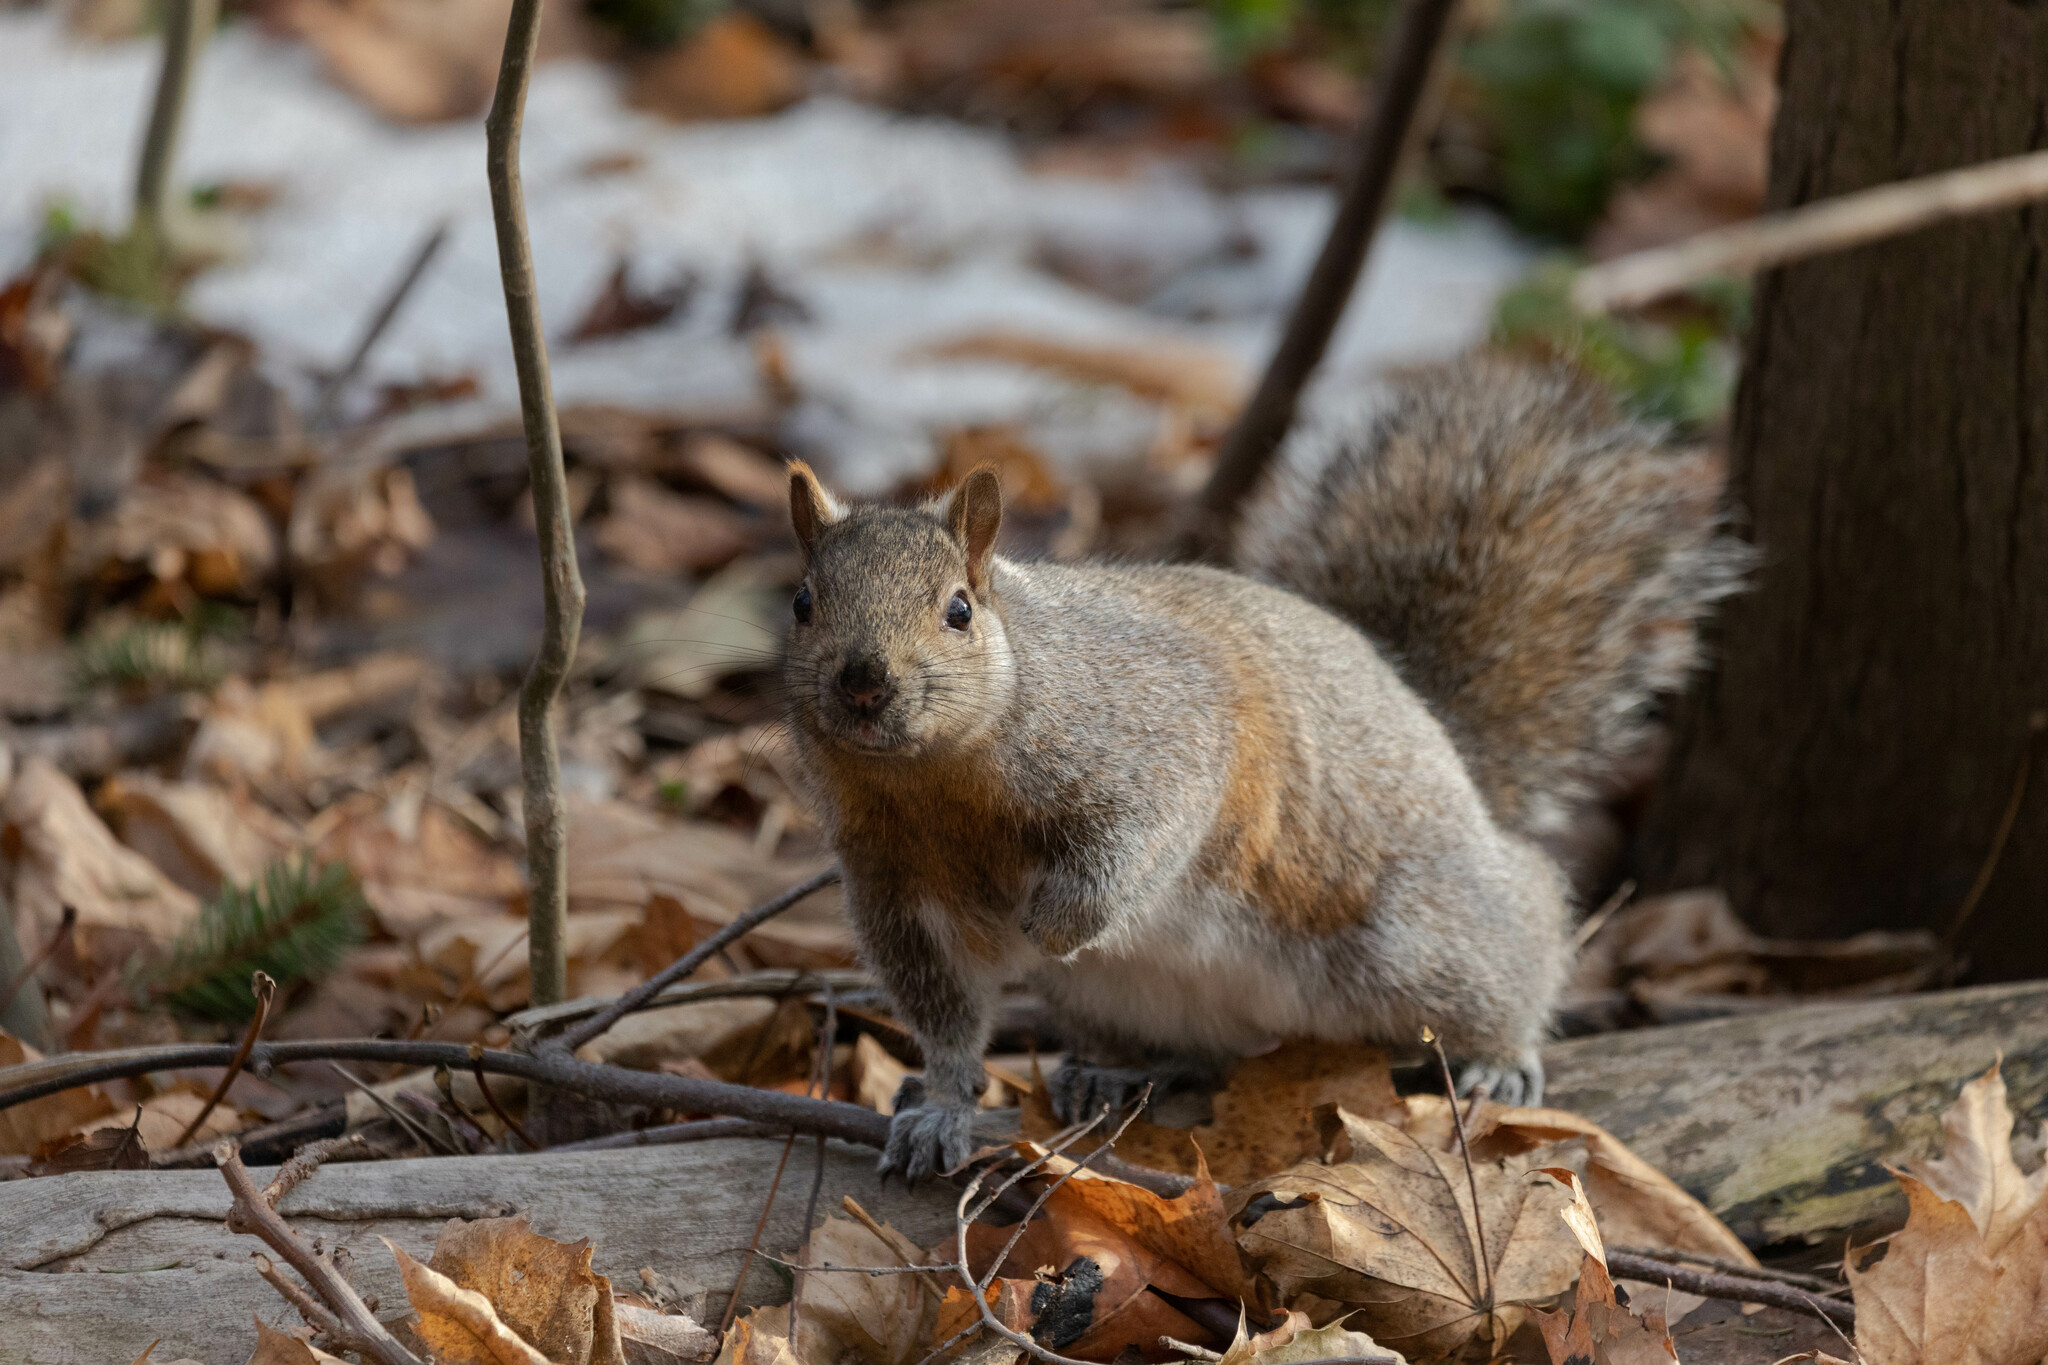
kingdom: Animalia
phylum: Chordata
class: Mammalia
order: Rodentia
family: Sciuridae
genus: Sciurus
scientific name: Sciurus carolinensis
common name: Eastern gray squirrel
